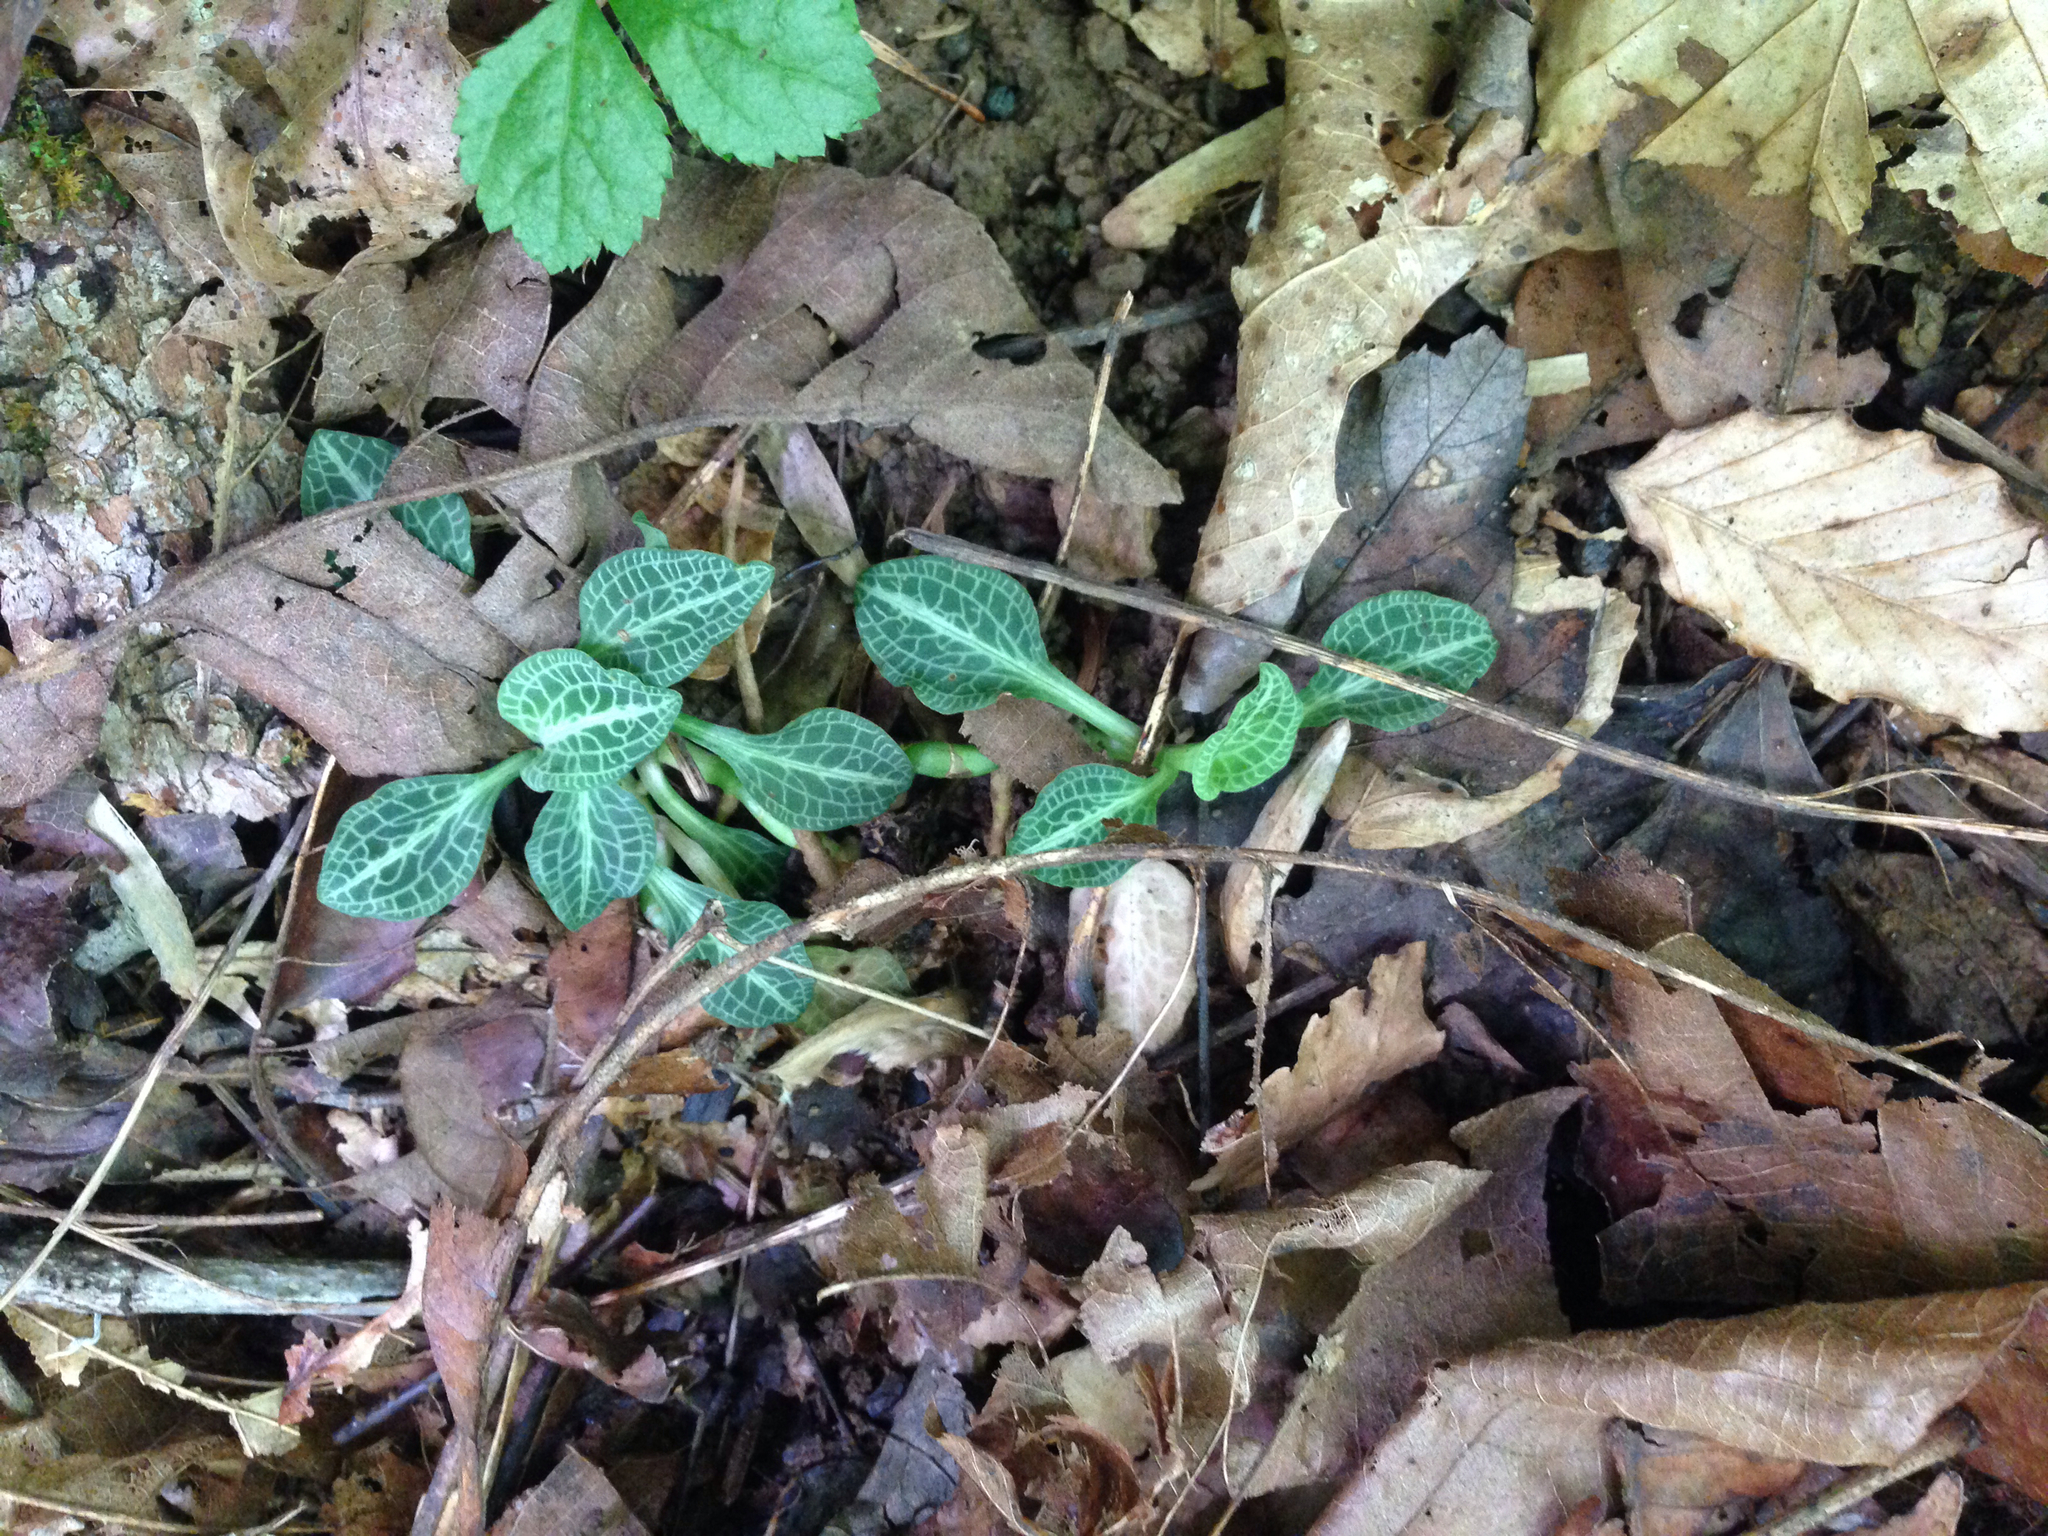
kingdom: Plantae
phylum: Tracheophyta
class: Liliopsida
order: Asparagales
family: Orchidaceae
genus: Goodyera
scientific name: Goodyera pubescens
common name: Downy rattlesnake-plantain
